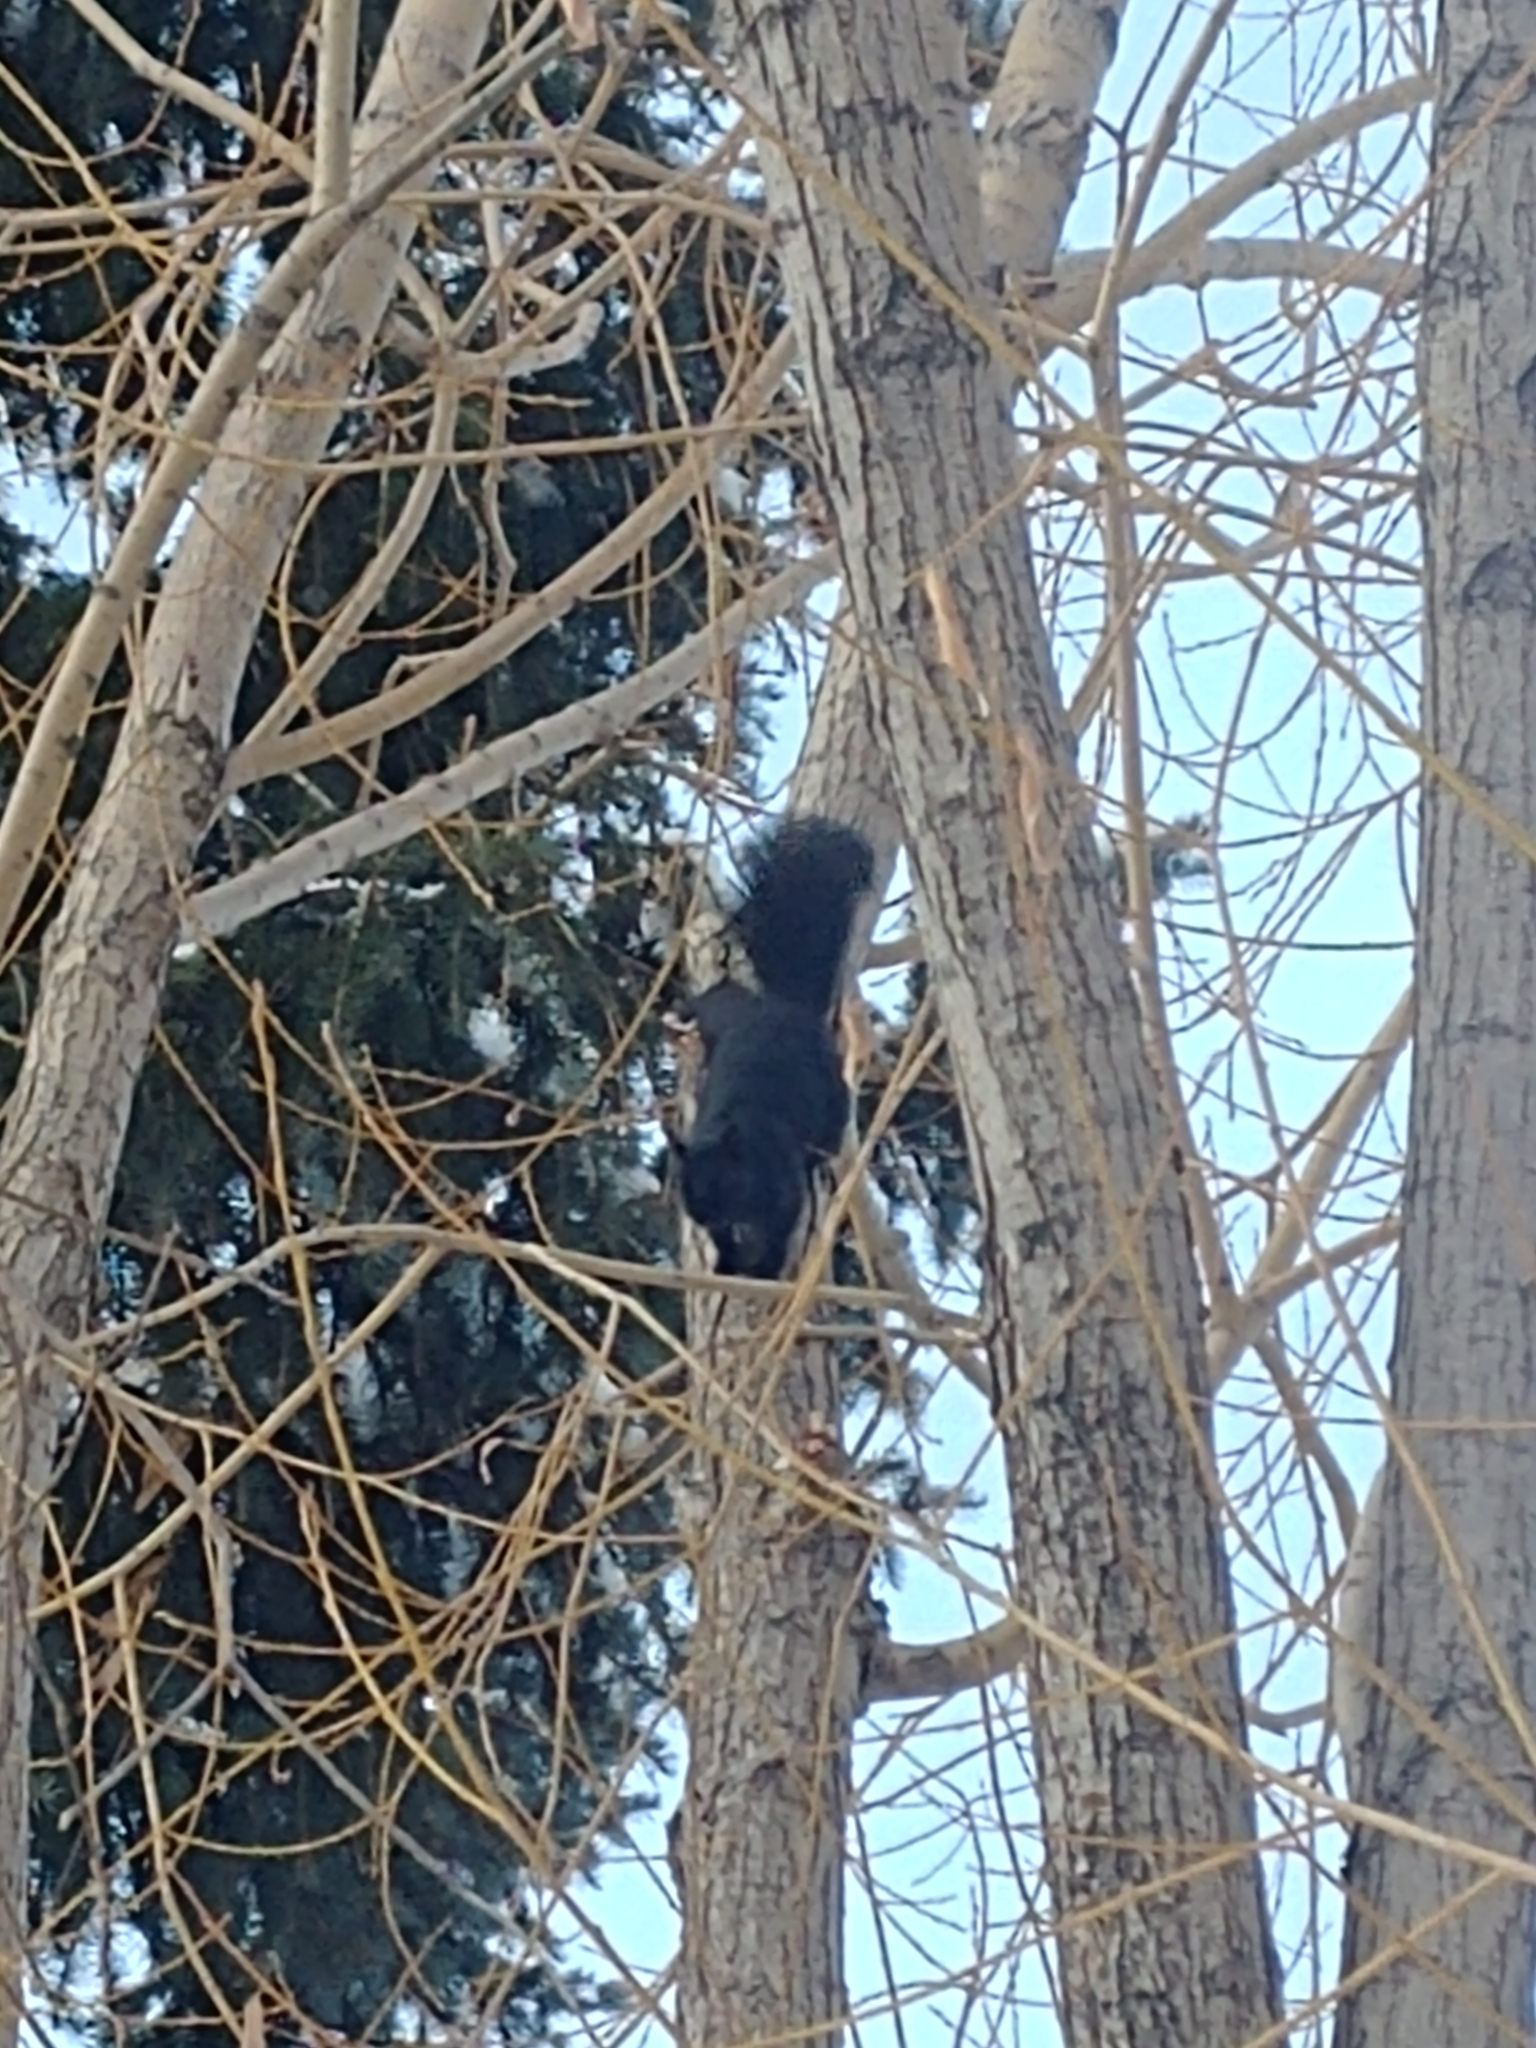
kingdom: Animalia
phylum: Chordata
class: Mammalia
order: Rodentia
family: Sciuridae
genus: Sciurus
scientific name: Sciurus carolinensis
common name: Eastern gray squirrel
